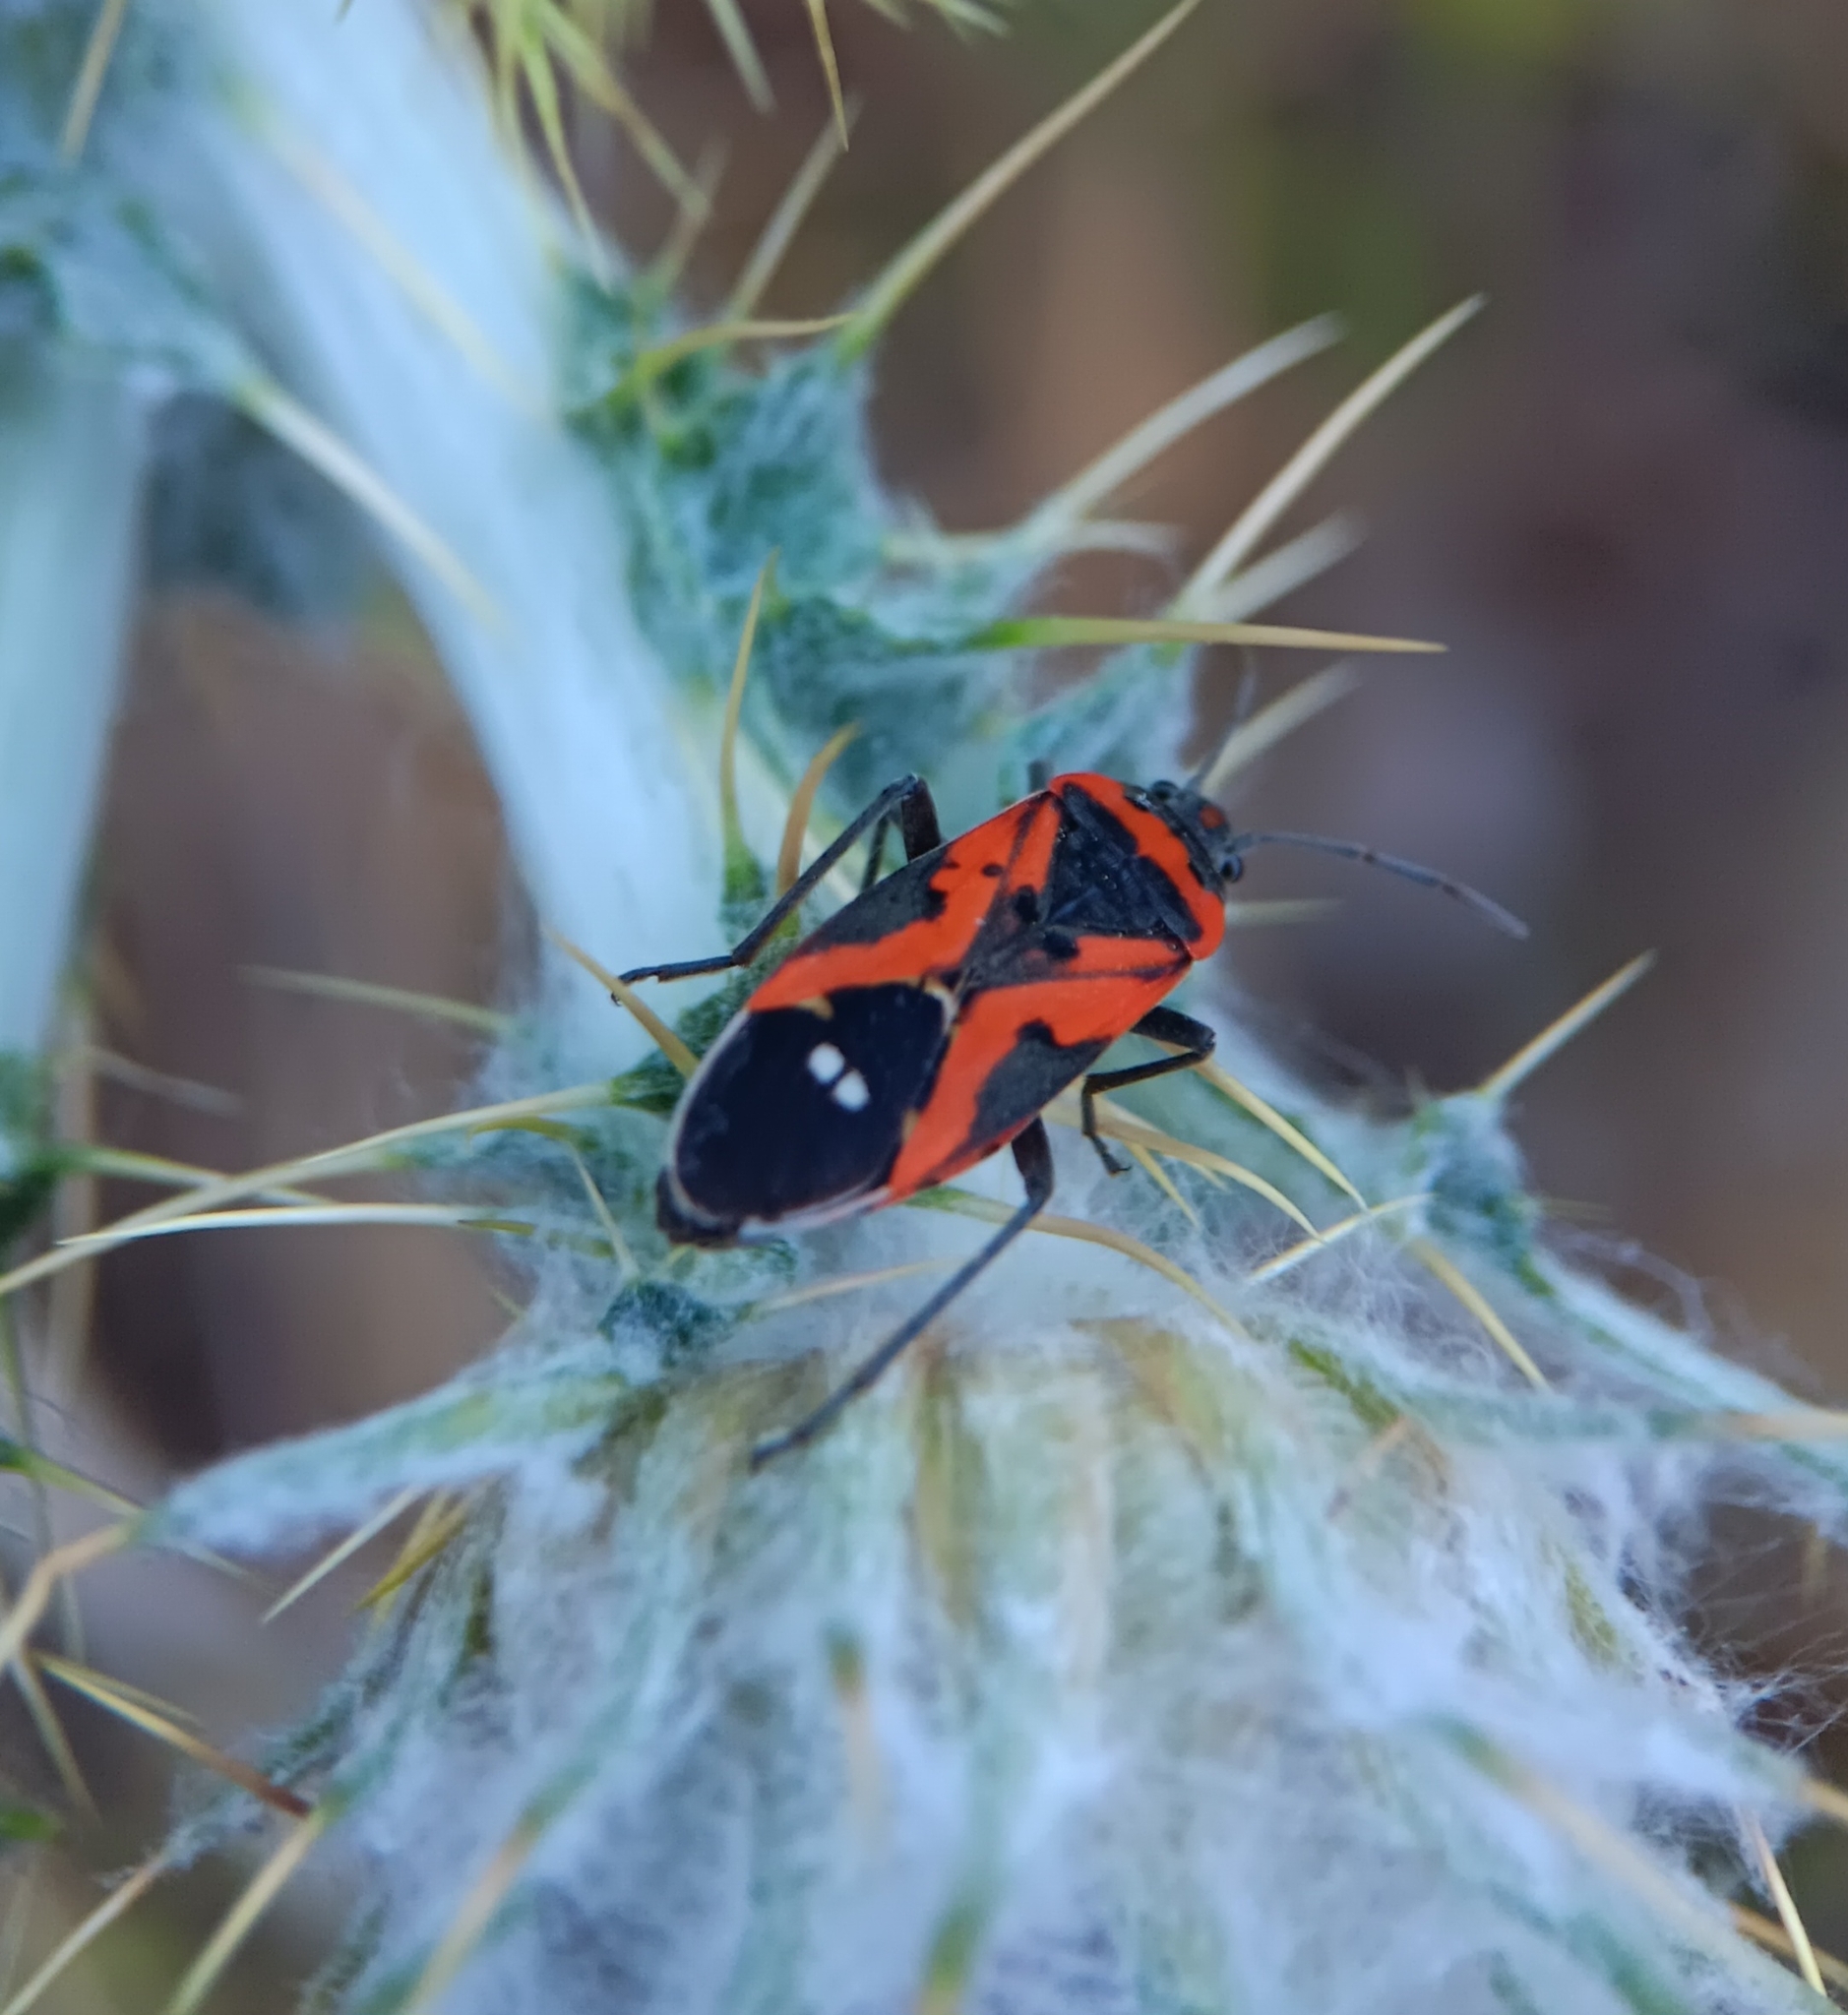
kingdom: Animalia
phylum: Arthropoda
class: Insecta
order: Hemiptera
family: Lygaeidae
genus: Lygaeus
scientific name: Lygaeus reclivatus
